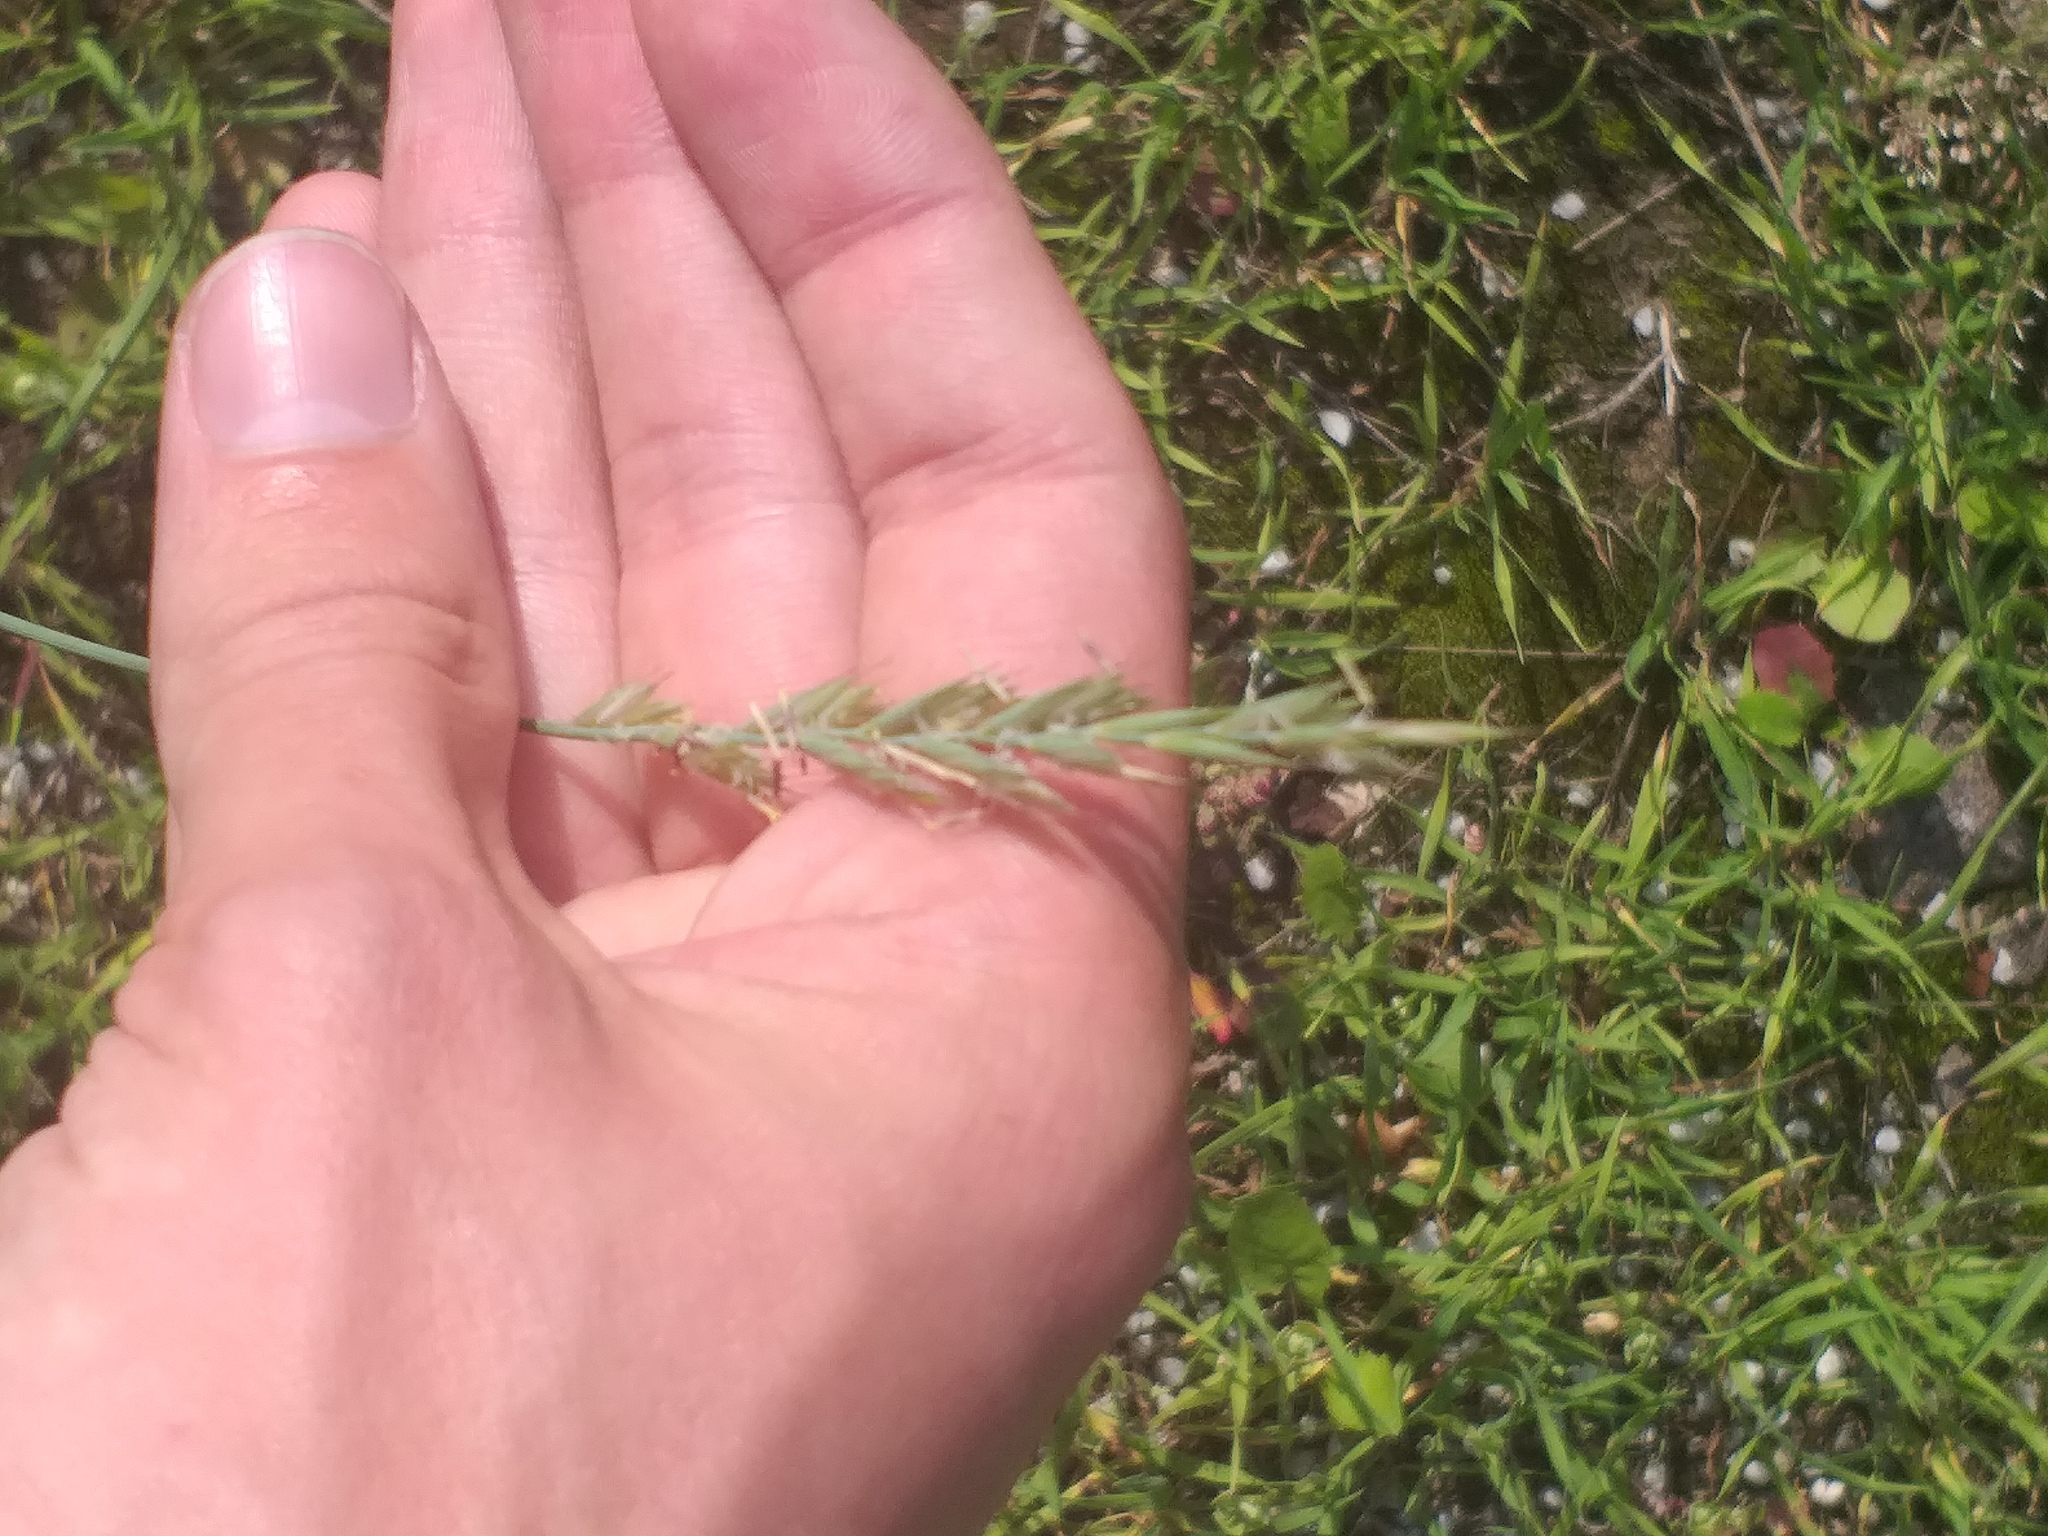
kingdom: Plantae
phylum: Tracheophyta
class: Liliopsida
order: Poales
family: Poaceae
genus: Elymus
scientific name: Elymus repens
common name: Quackgrass
